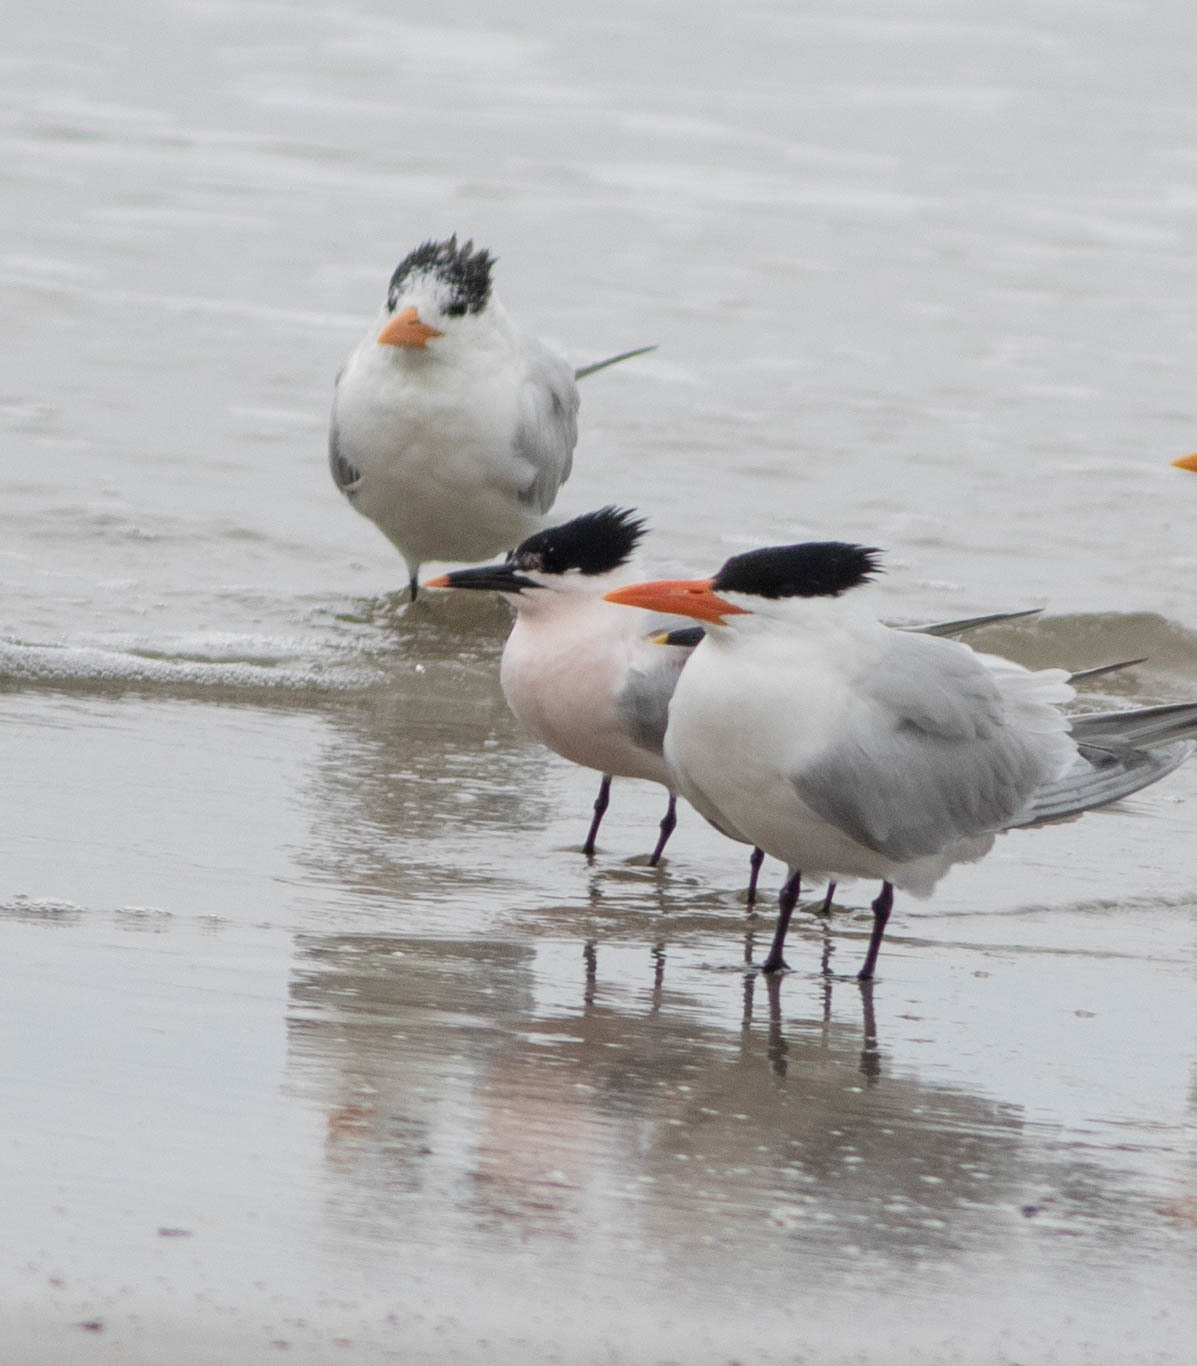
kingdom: Animalia
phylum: Chordata
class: Aves
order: Charadriiformes
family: Laridae
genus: Thalasseus
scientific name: Thalasseus maximus
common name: Royal tern
